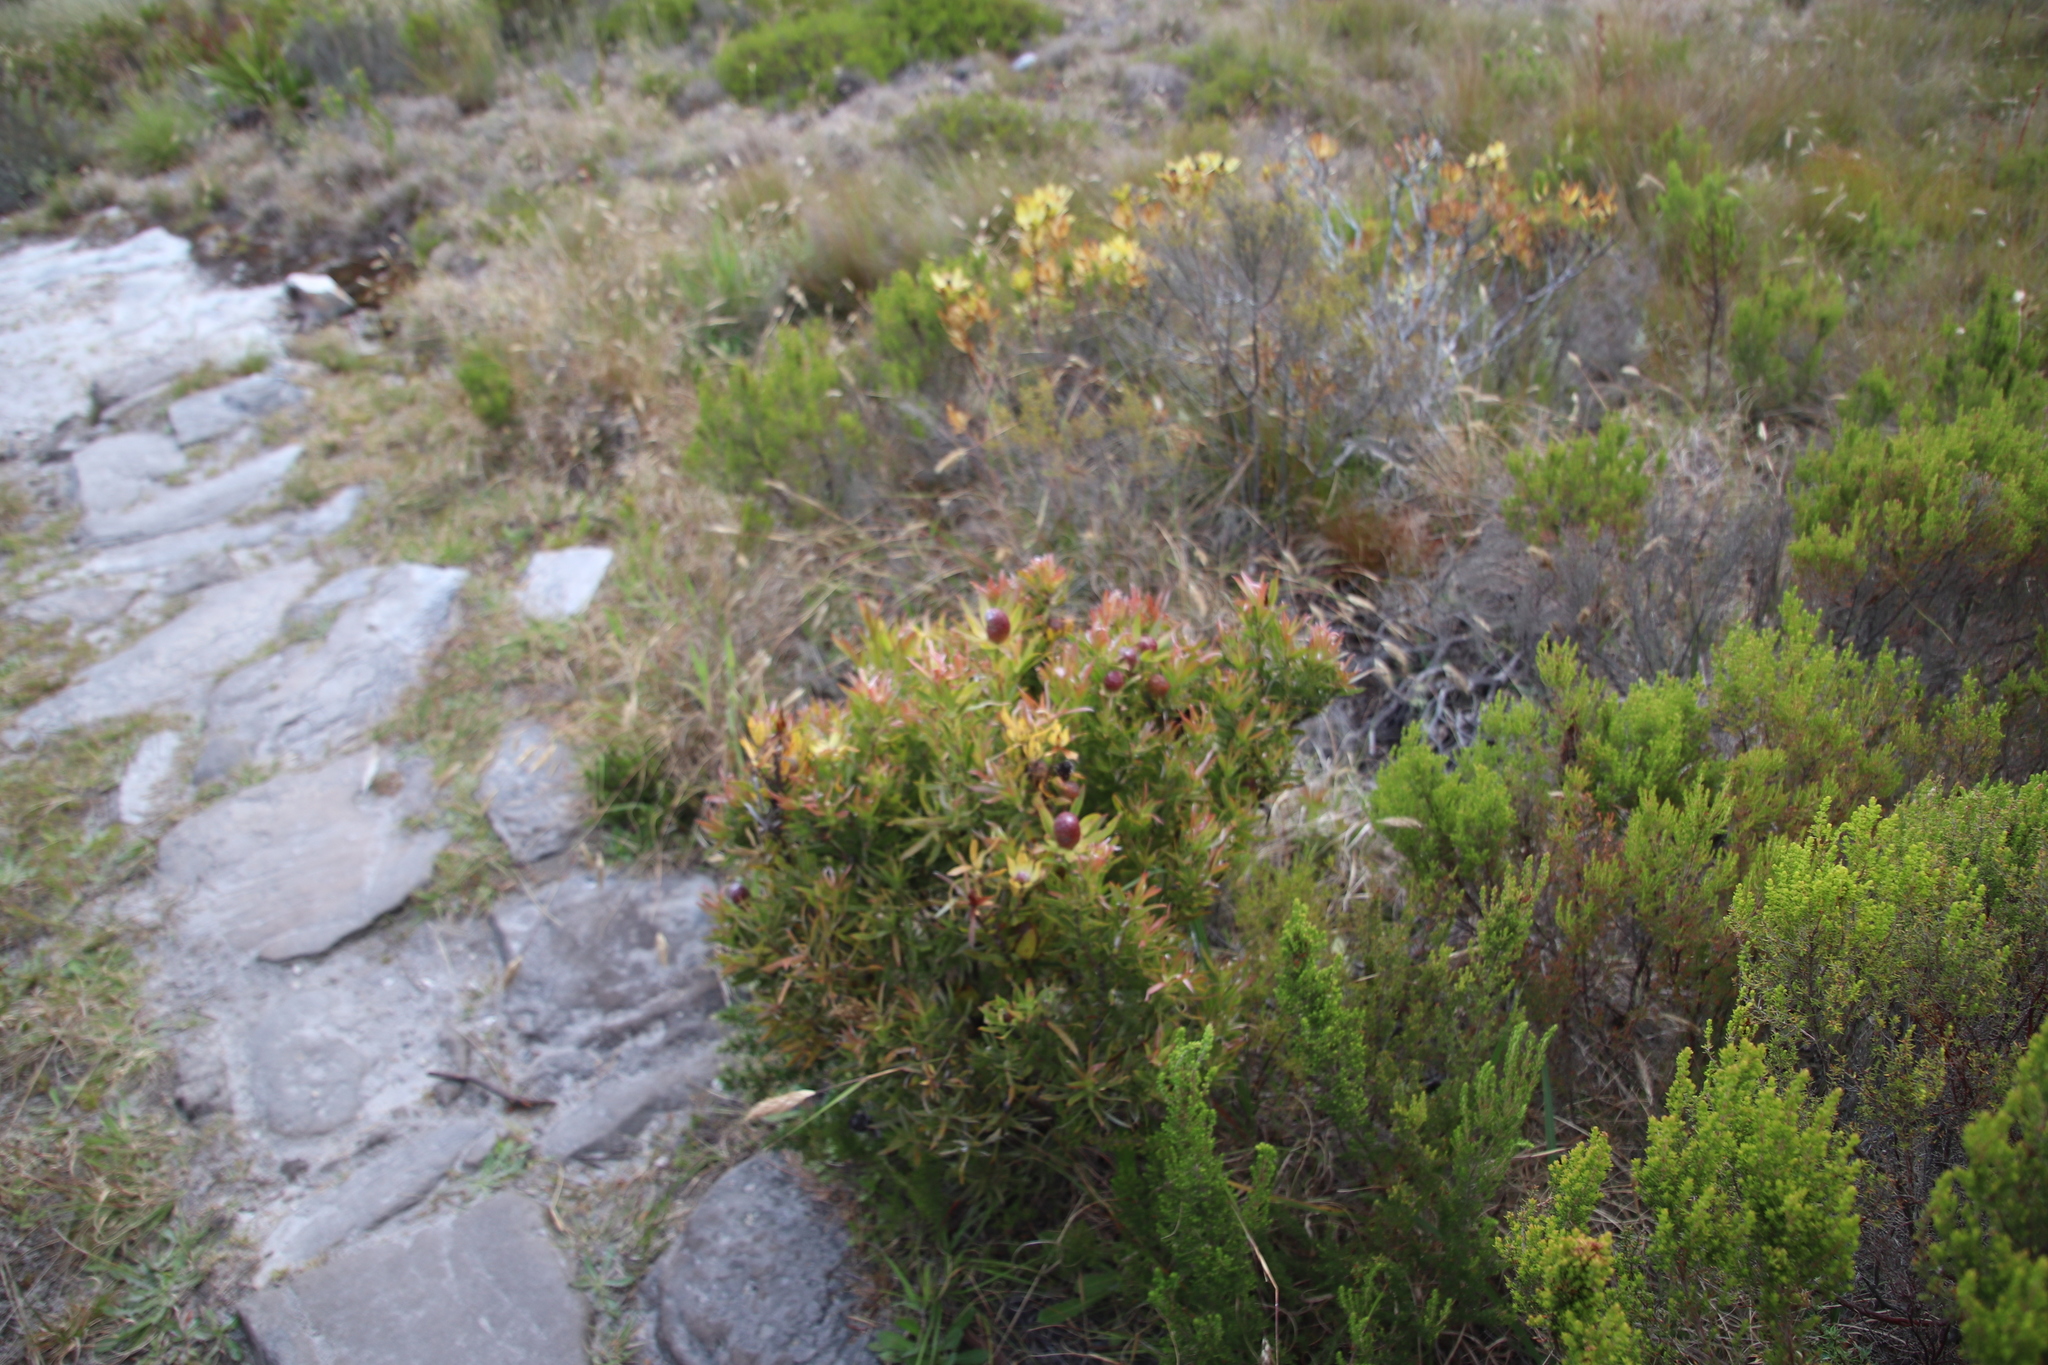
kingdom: Plantae
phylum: Tracheophyta
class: Magnoliopsida
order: Proteales
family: Proteaceae
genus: Leucadendron
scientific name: Leucadendron strobilinum
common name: Mountain rose
